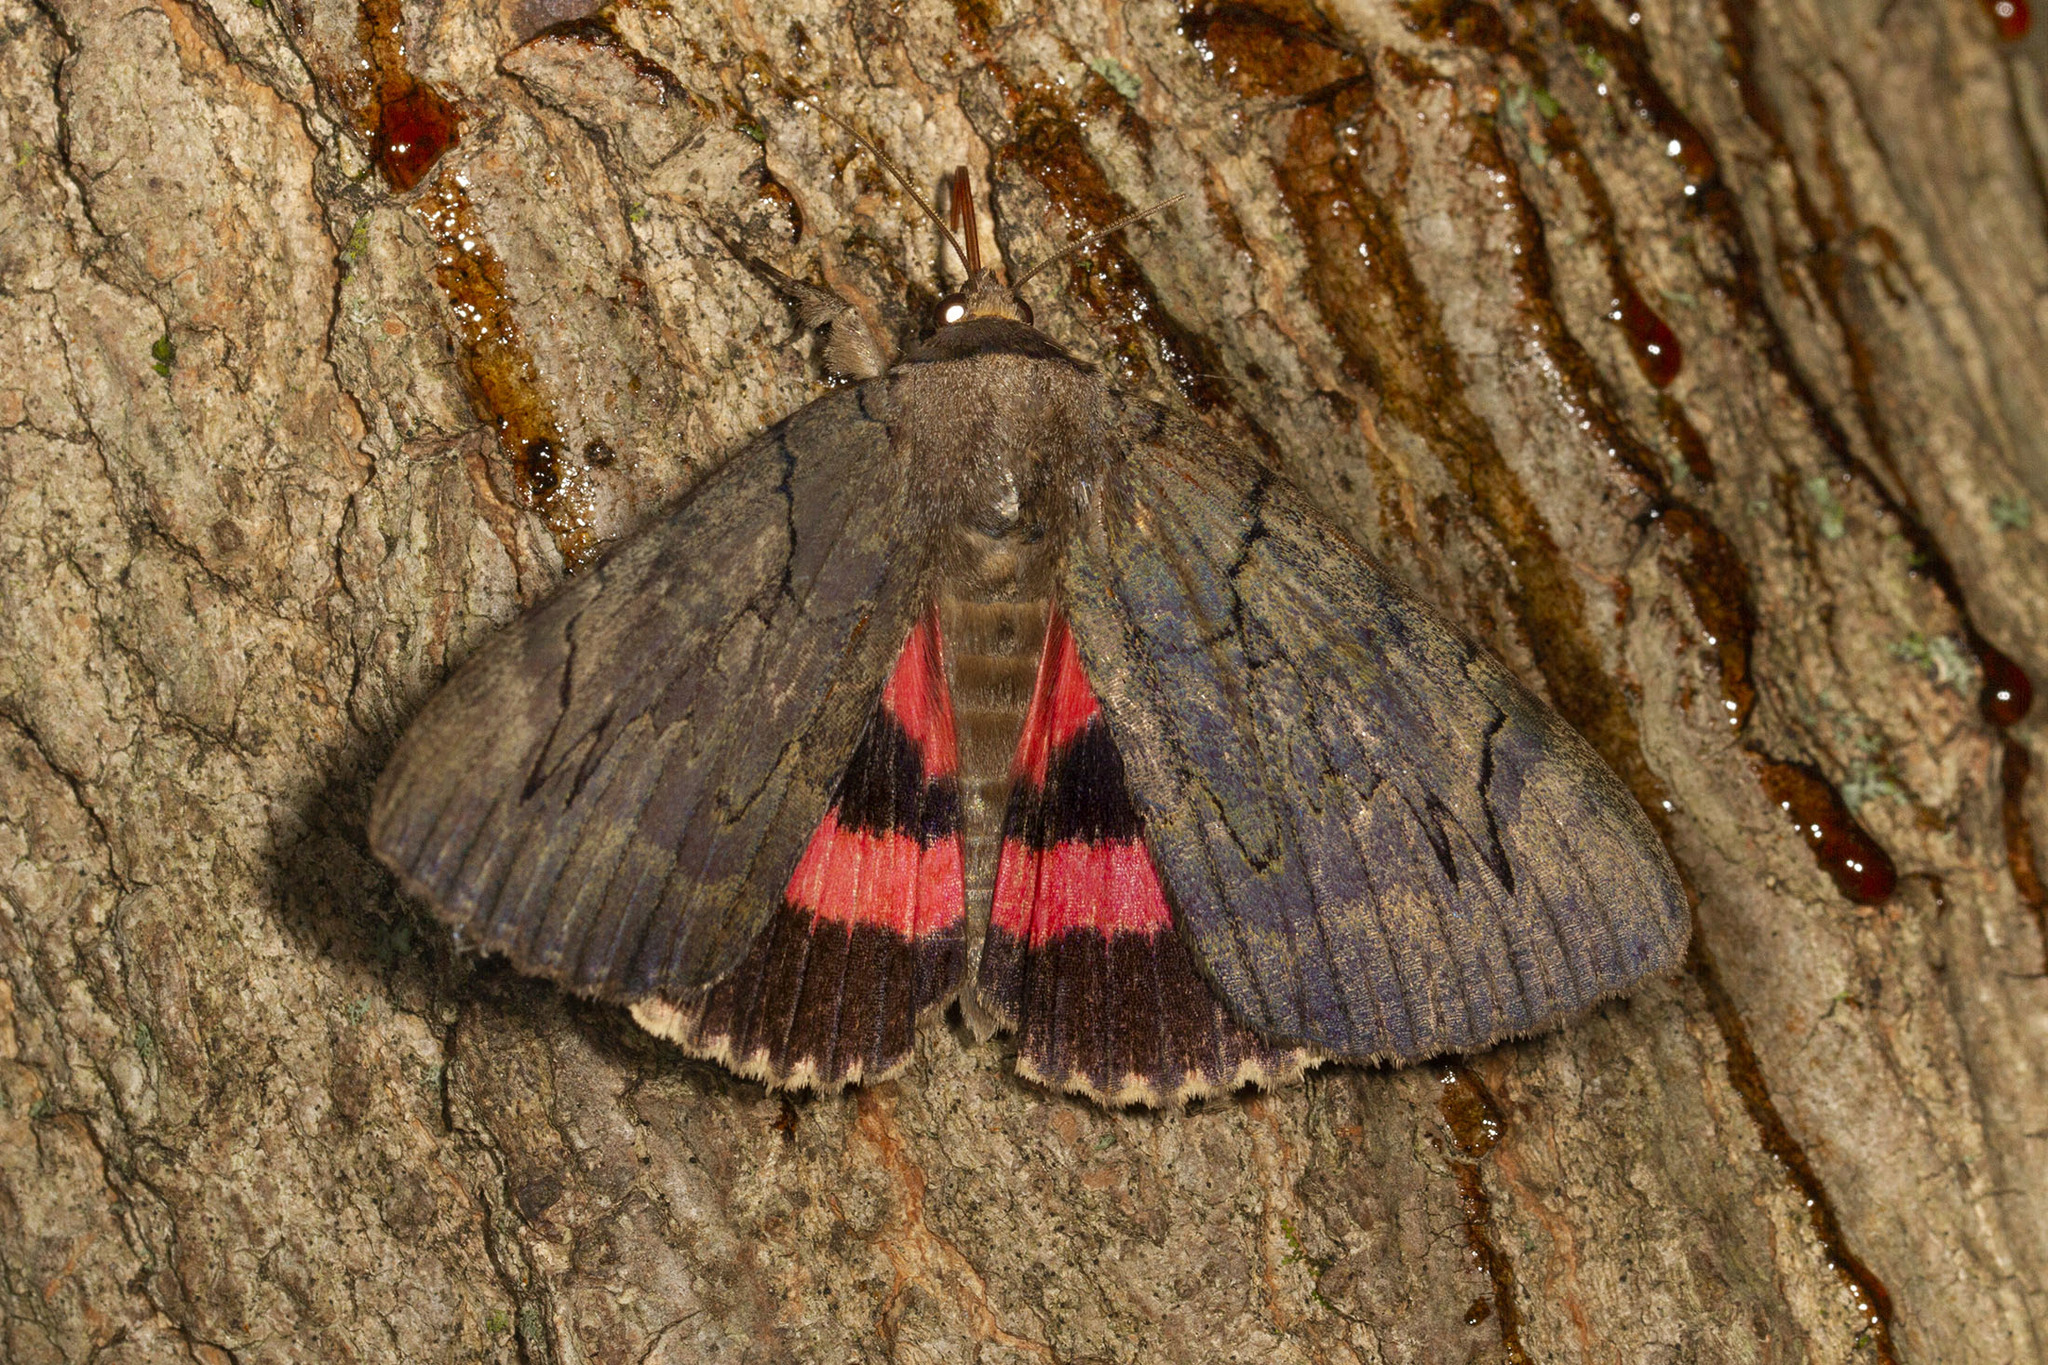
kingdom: Animalia
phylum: Arthropoda
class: Insecta
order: Lepidoptera
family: Erebidae
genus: Catocala
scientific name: Catocala cara
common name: Darling underwing
